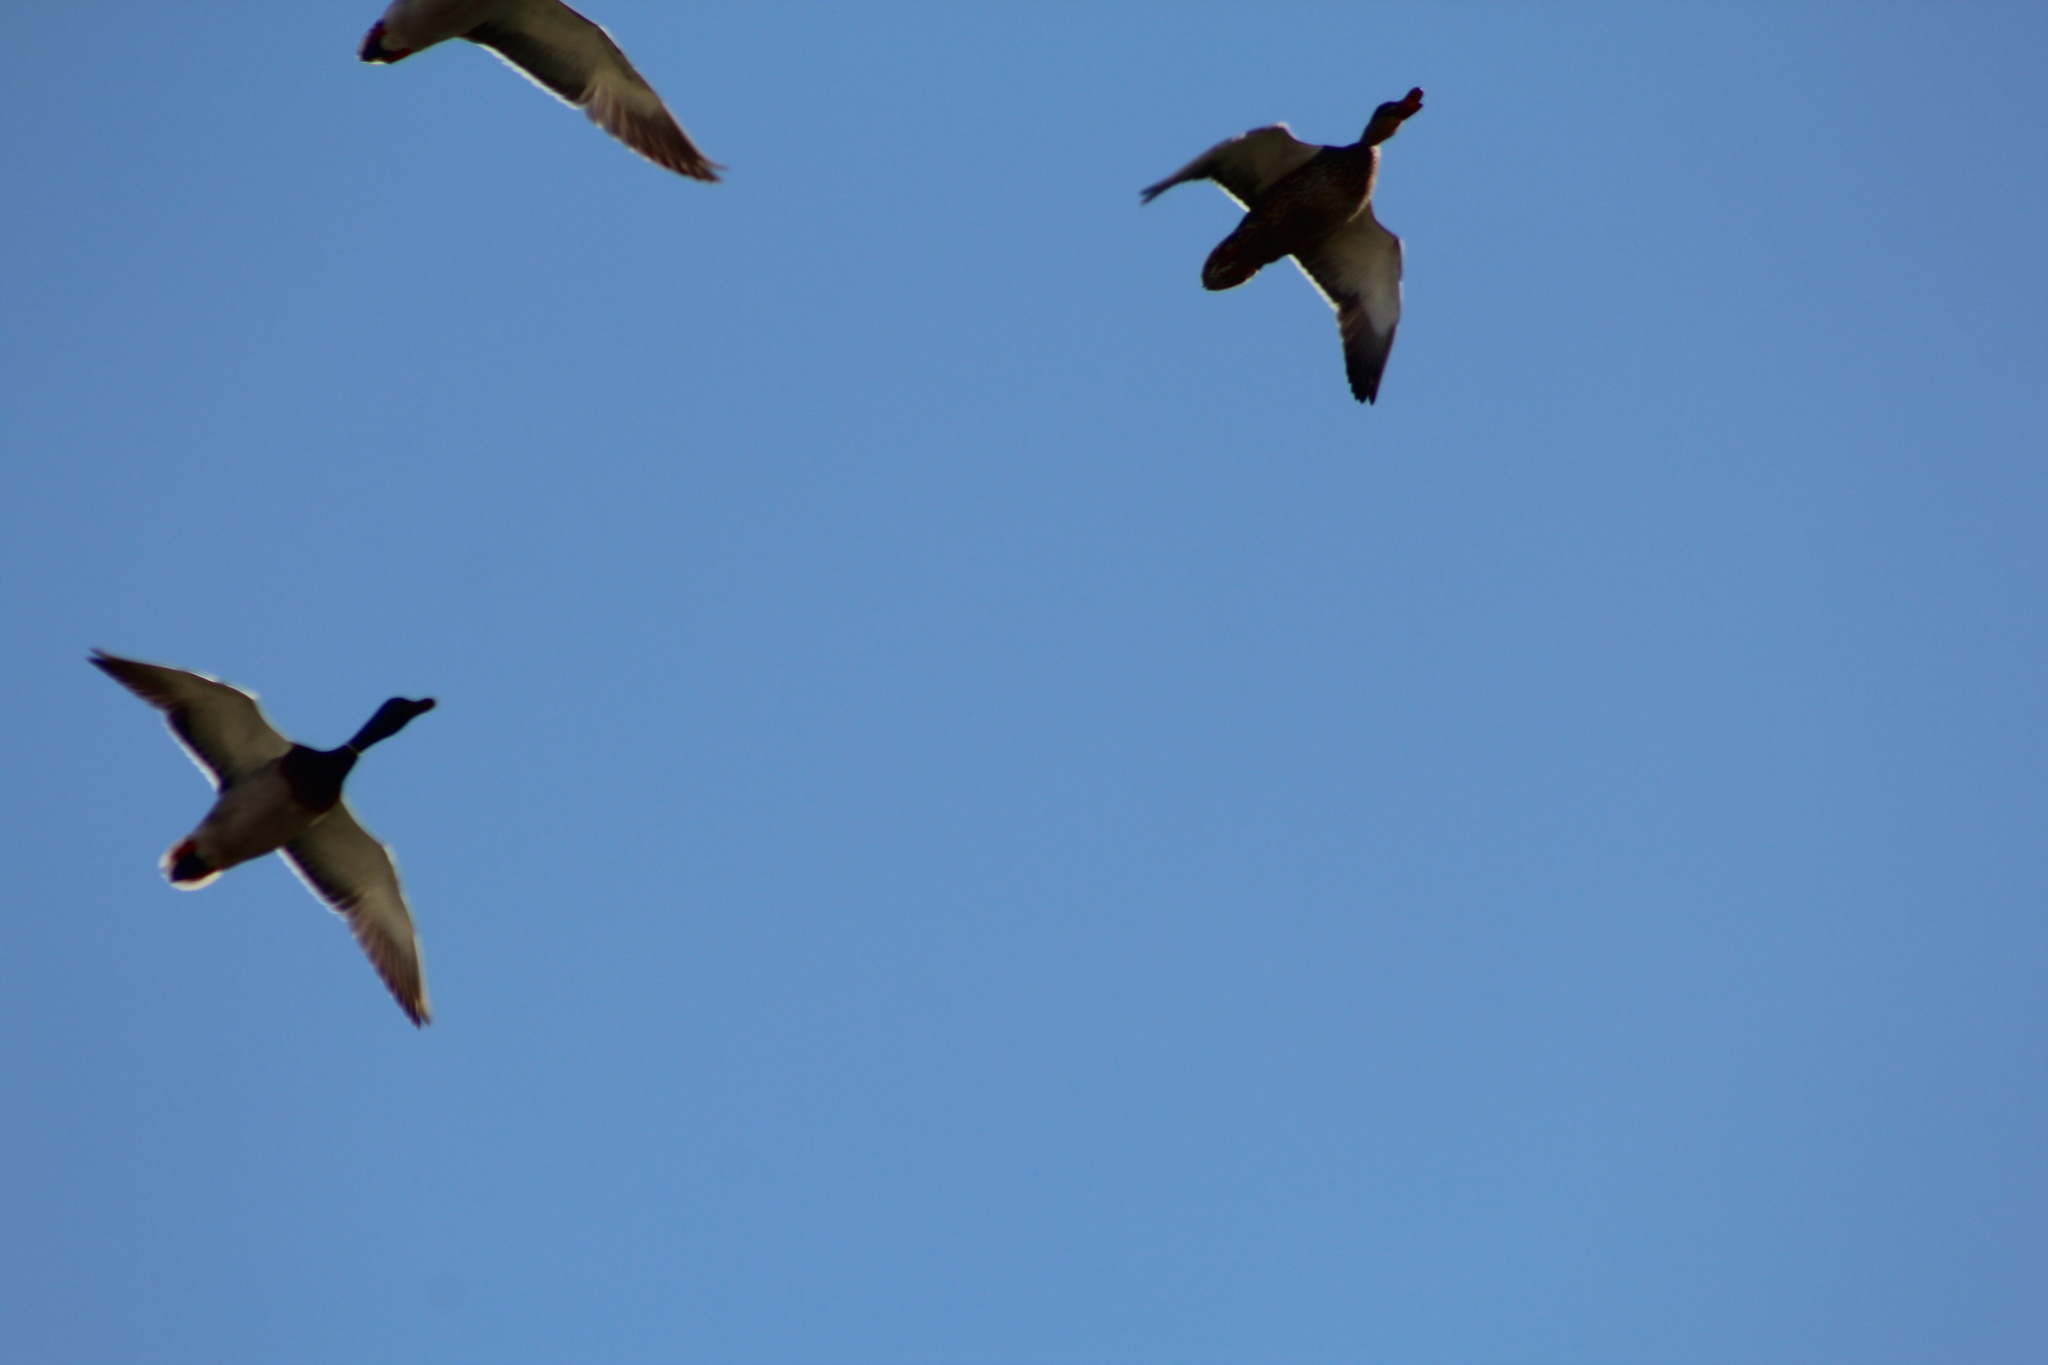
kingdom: Animalia
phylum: Chordata
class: Aves
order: Anseriformes
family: Anatidae
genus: Anas
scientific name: Anas platyrhynchos
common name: Mallard
